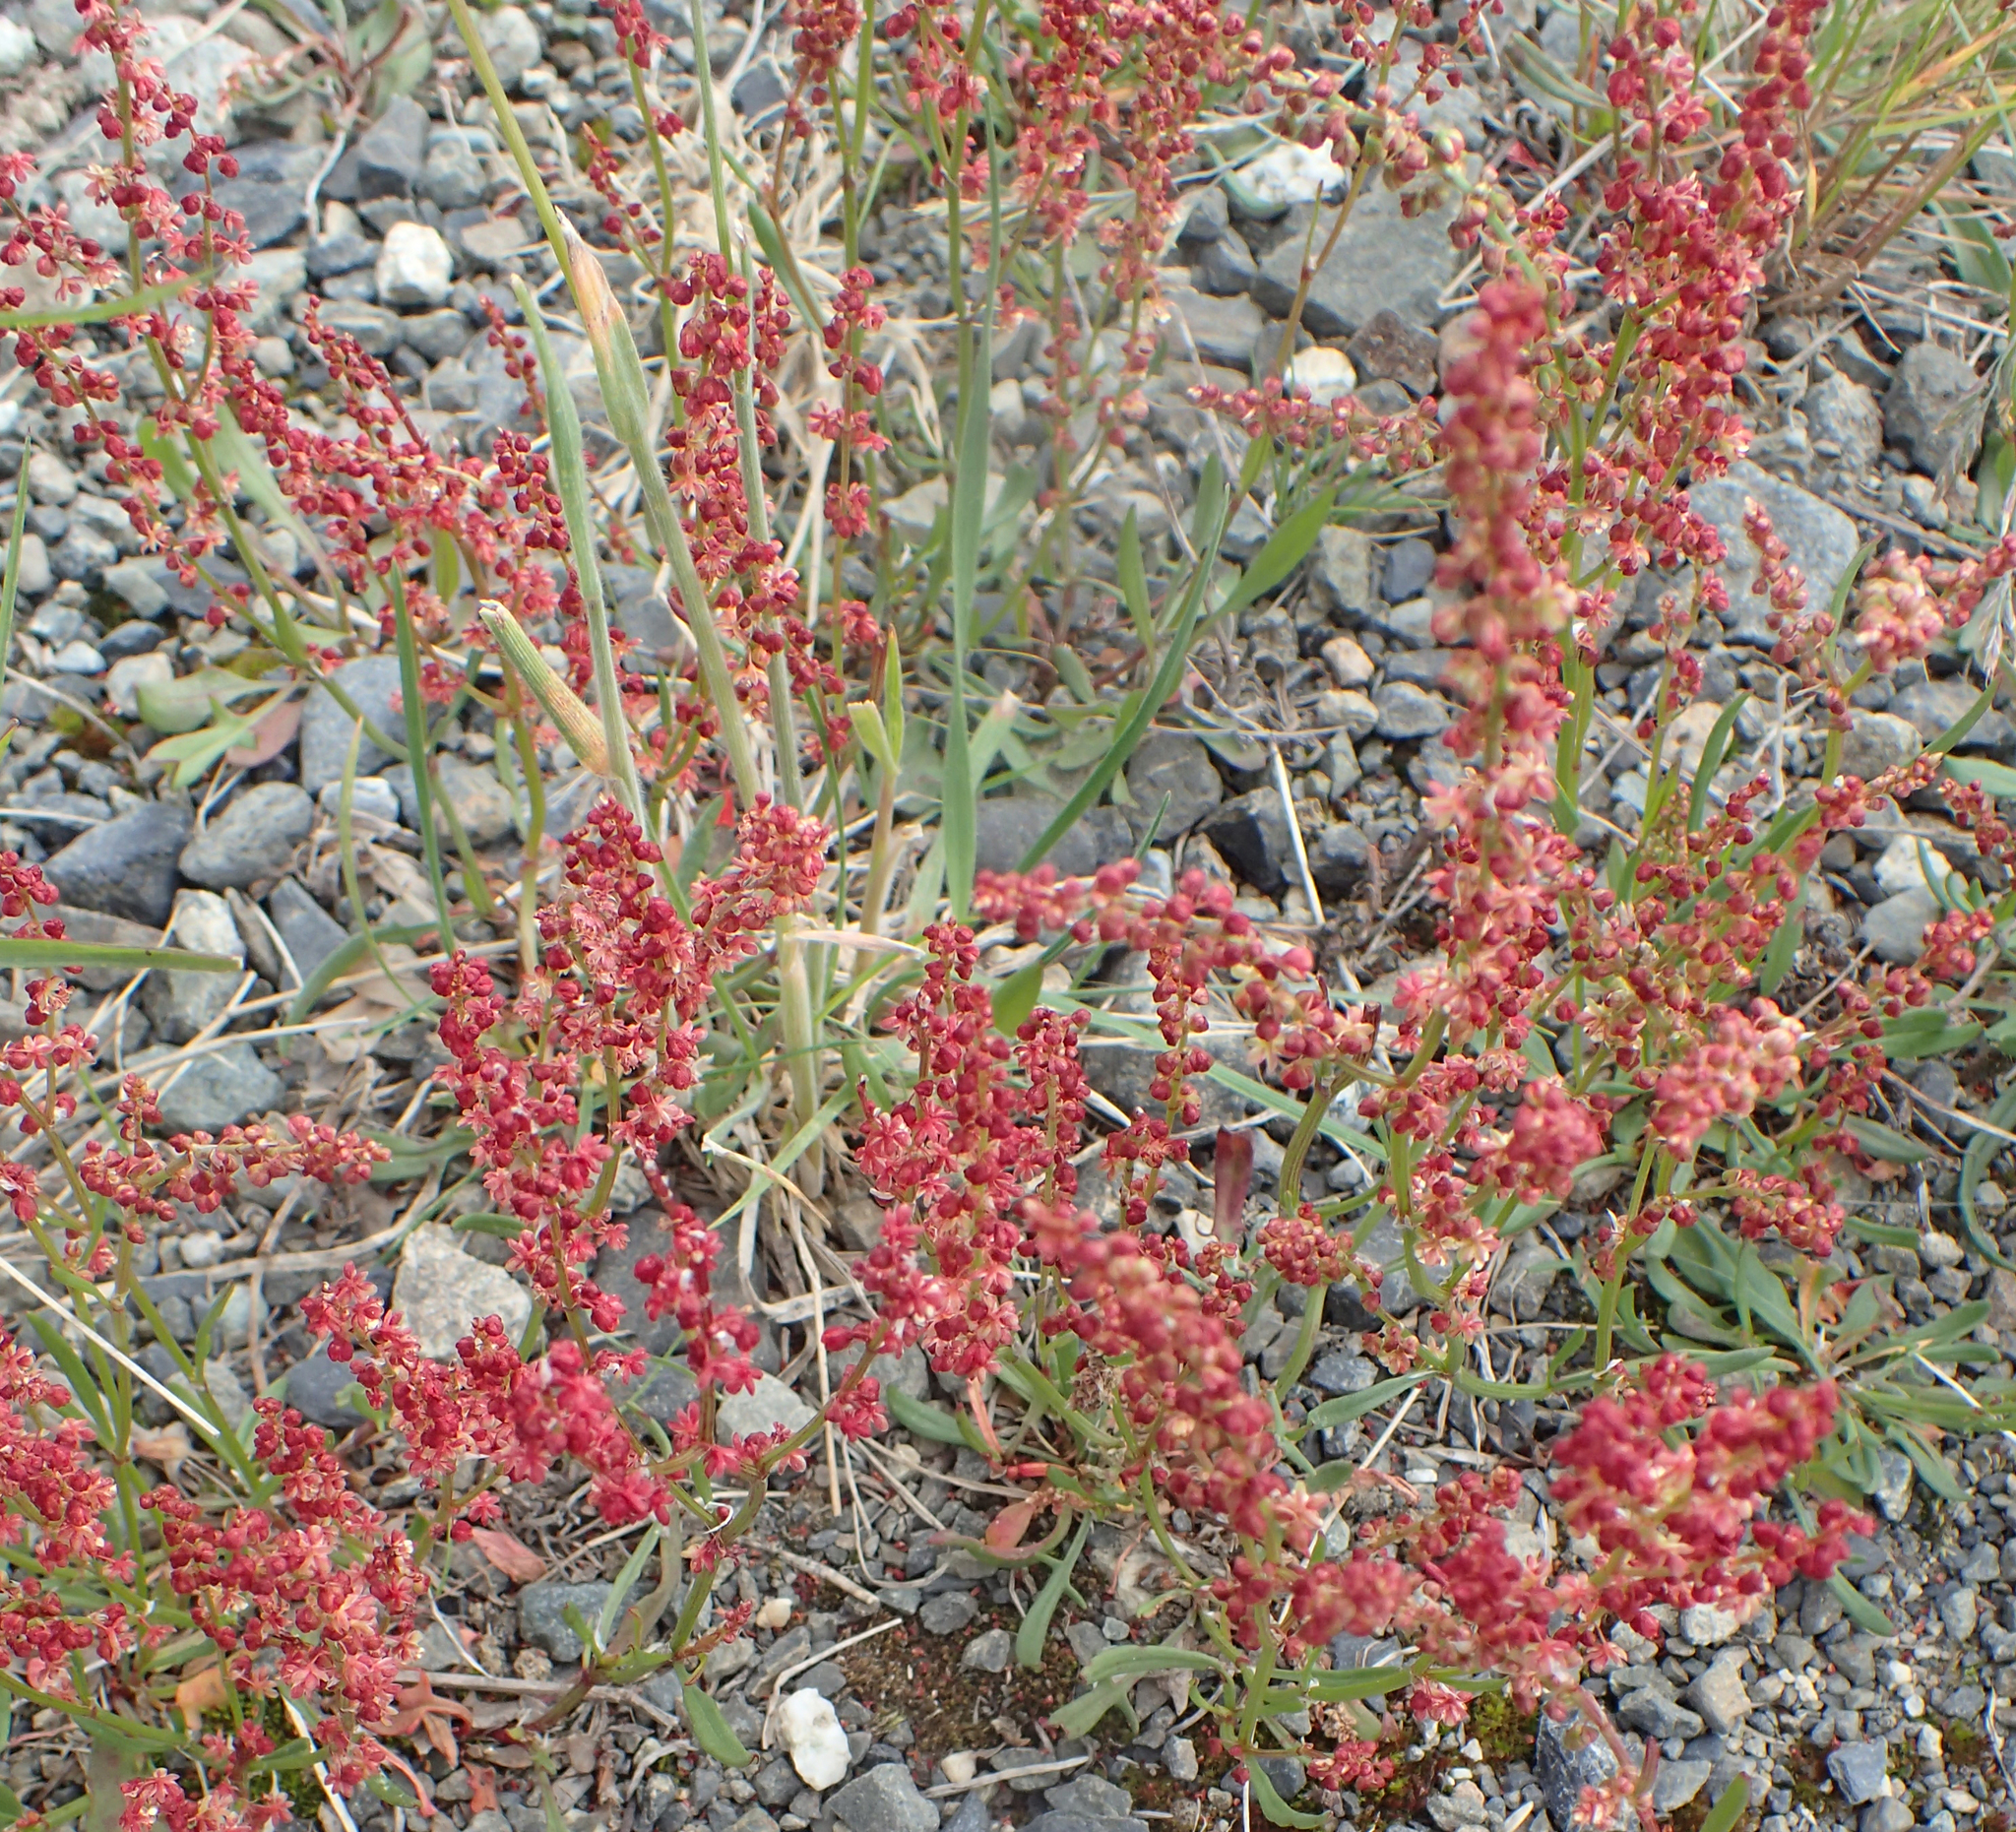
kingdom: Plantae
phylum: Tracheophyta
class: Magnoliopsida
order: Caryophyllales
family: Polygonaceae
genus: Rumex
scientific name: Rumex acetosella
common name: Common sheep sorrel
